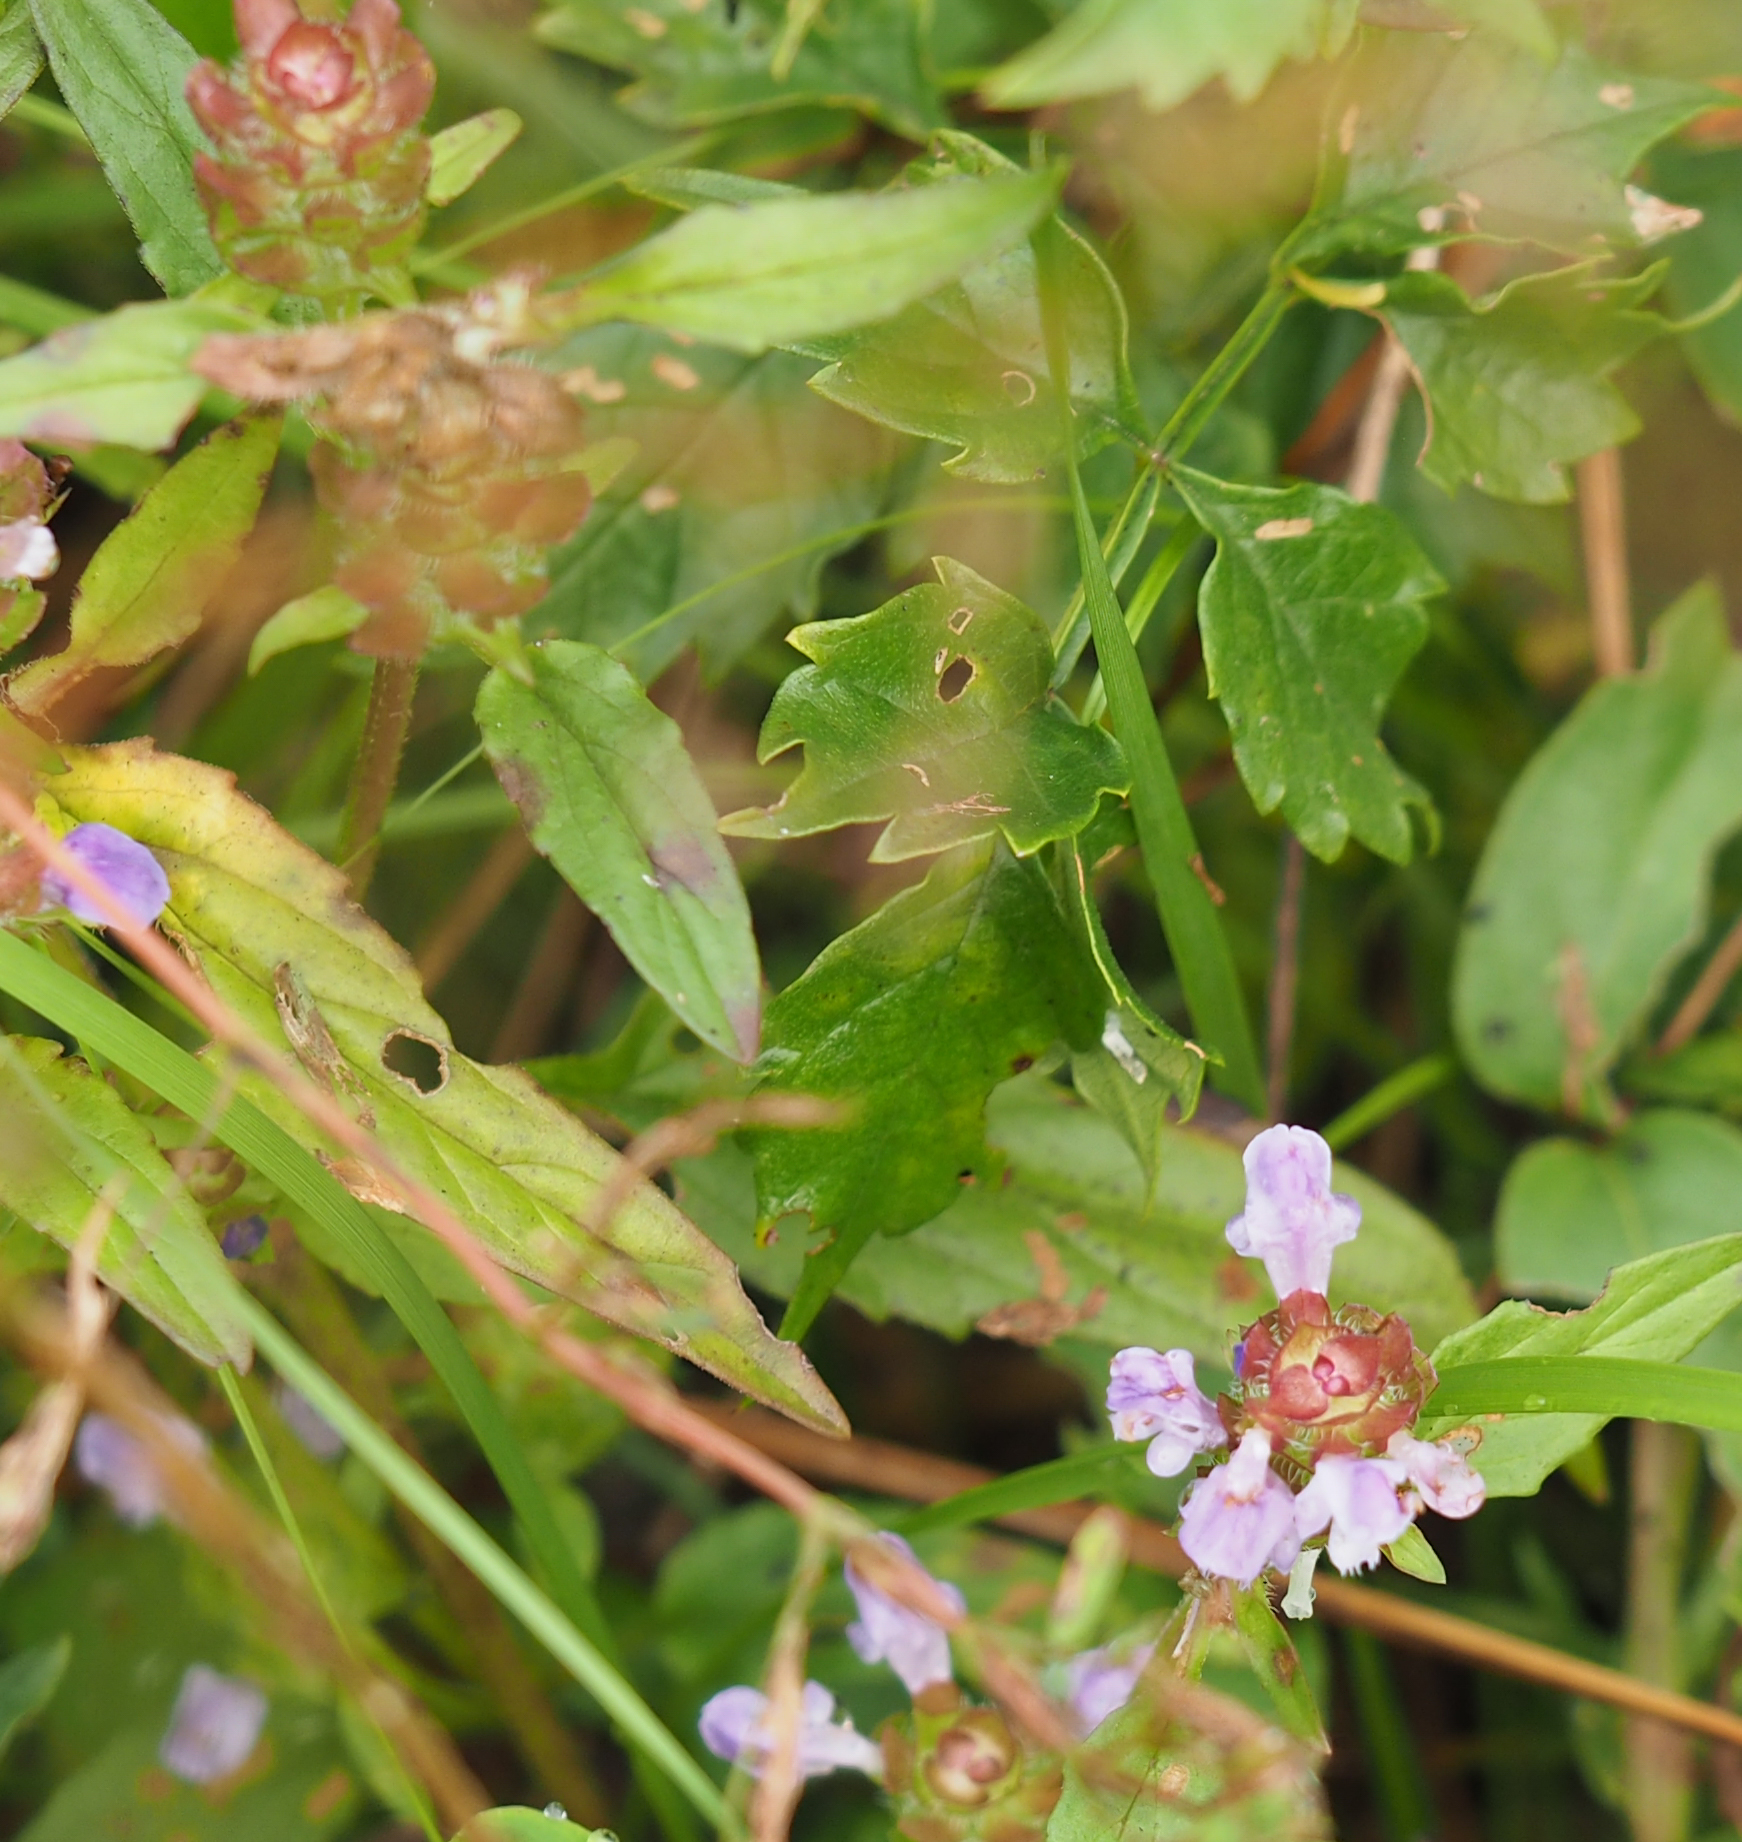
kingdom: Plantae
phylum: Tracheophyta
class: Magnoliopsida
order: Lamiales
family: Lamiaceae
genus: Prunella
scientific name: Prunella vulgaris
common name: Heal-all
